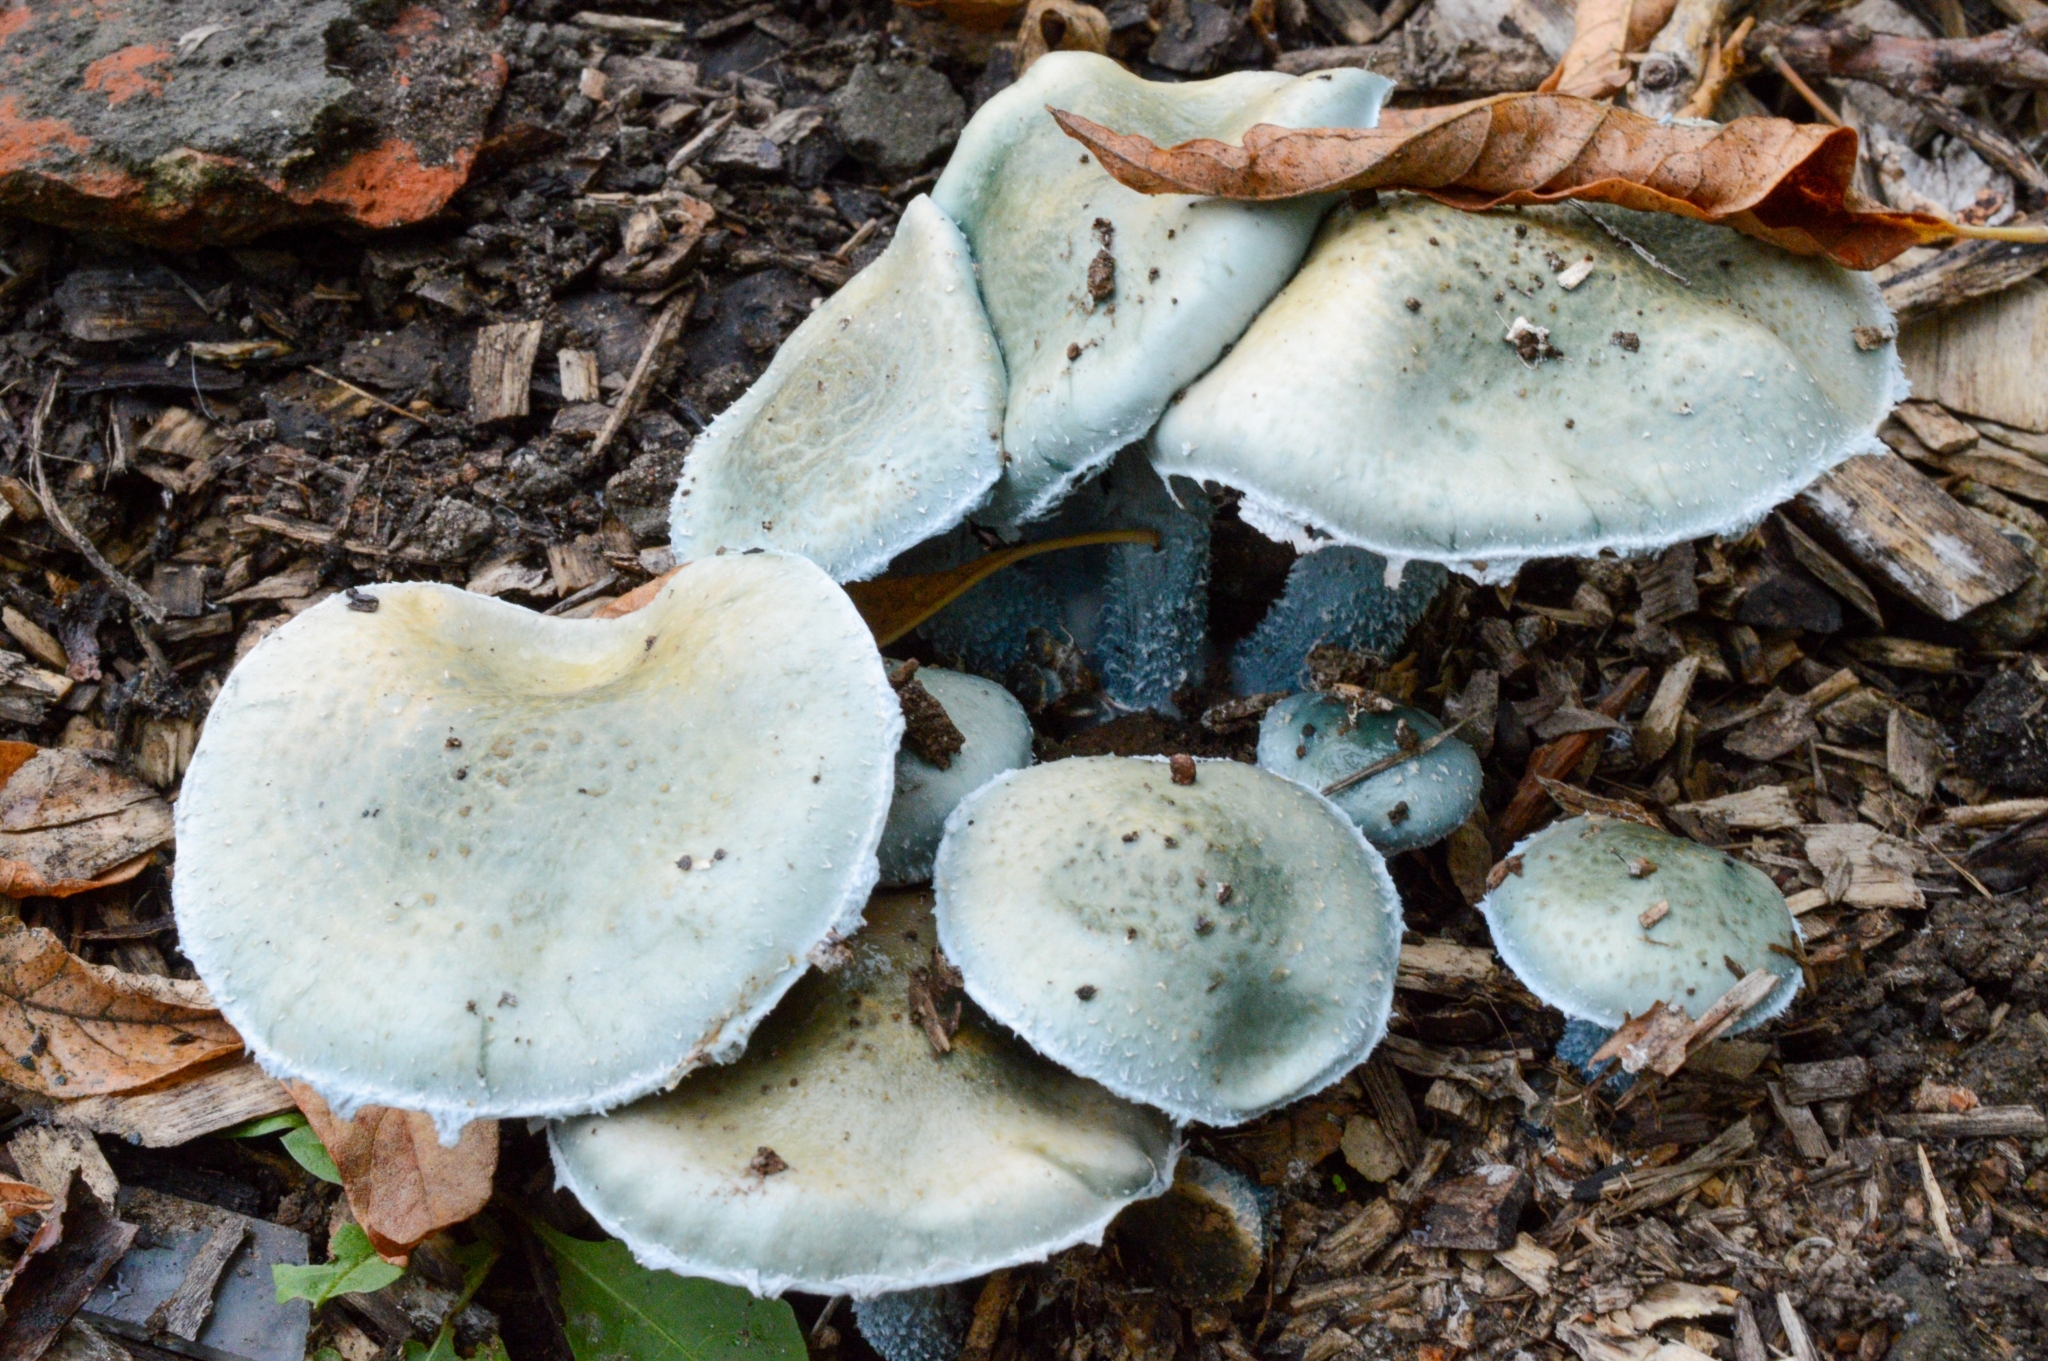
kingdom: Fungi
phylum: Basidiomycota
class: Agaricomycetes
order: Agaricales
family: Strophariaceae
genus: Stropharia
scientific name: Stropharia aeruginosa
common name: Verdigris roundhead
